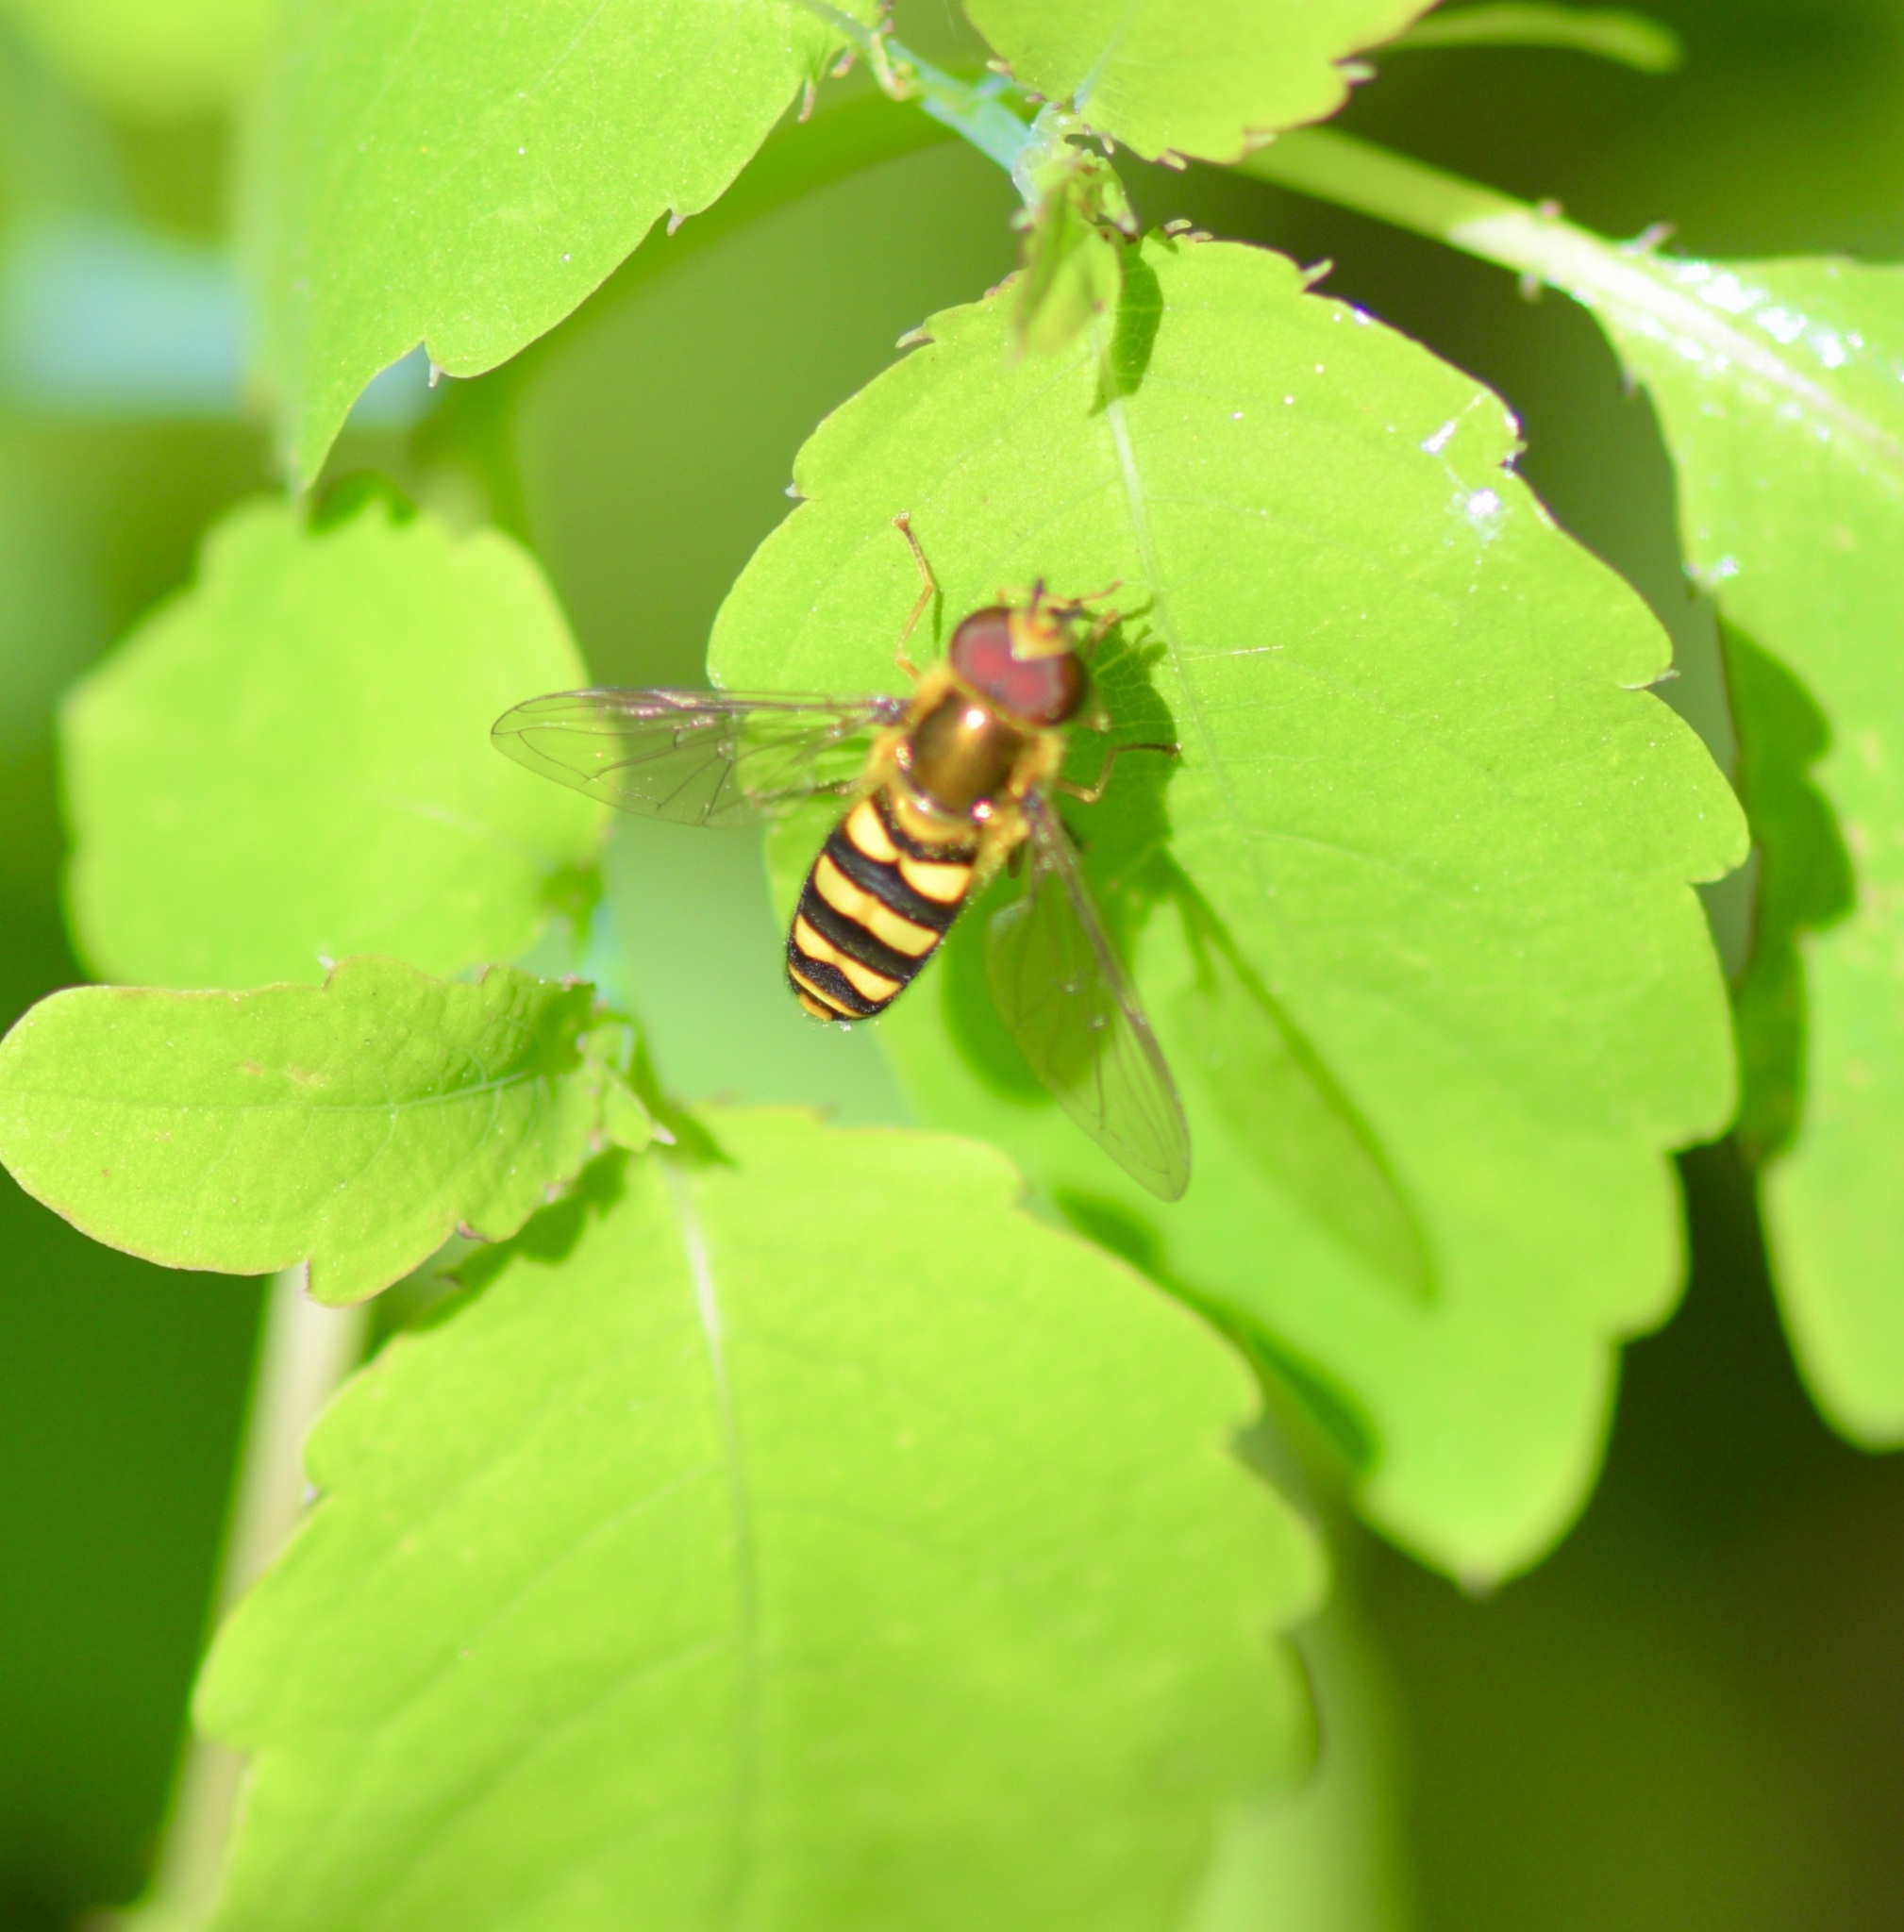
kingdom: Animalia
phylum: Arthropoda
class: Insecta
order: Diptera
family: Syrphidae
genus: Eupeodes
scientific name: Eupeodes
